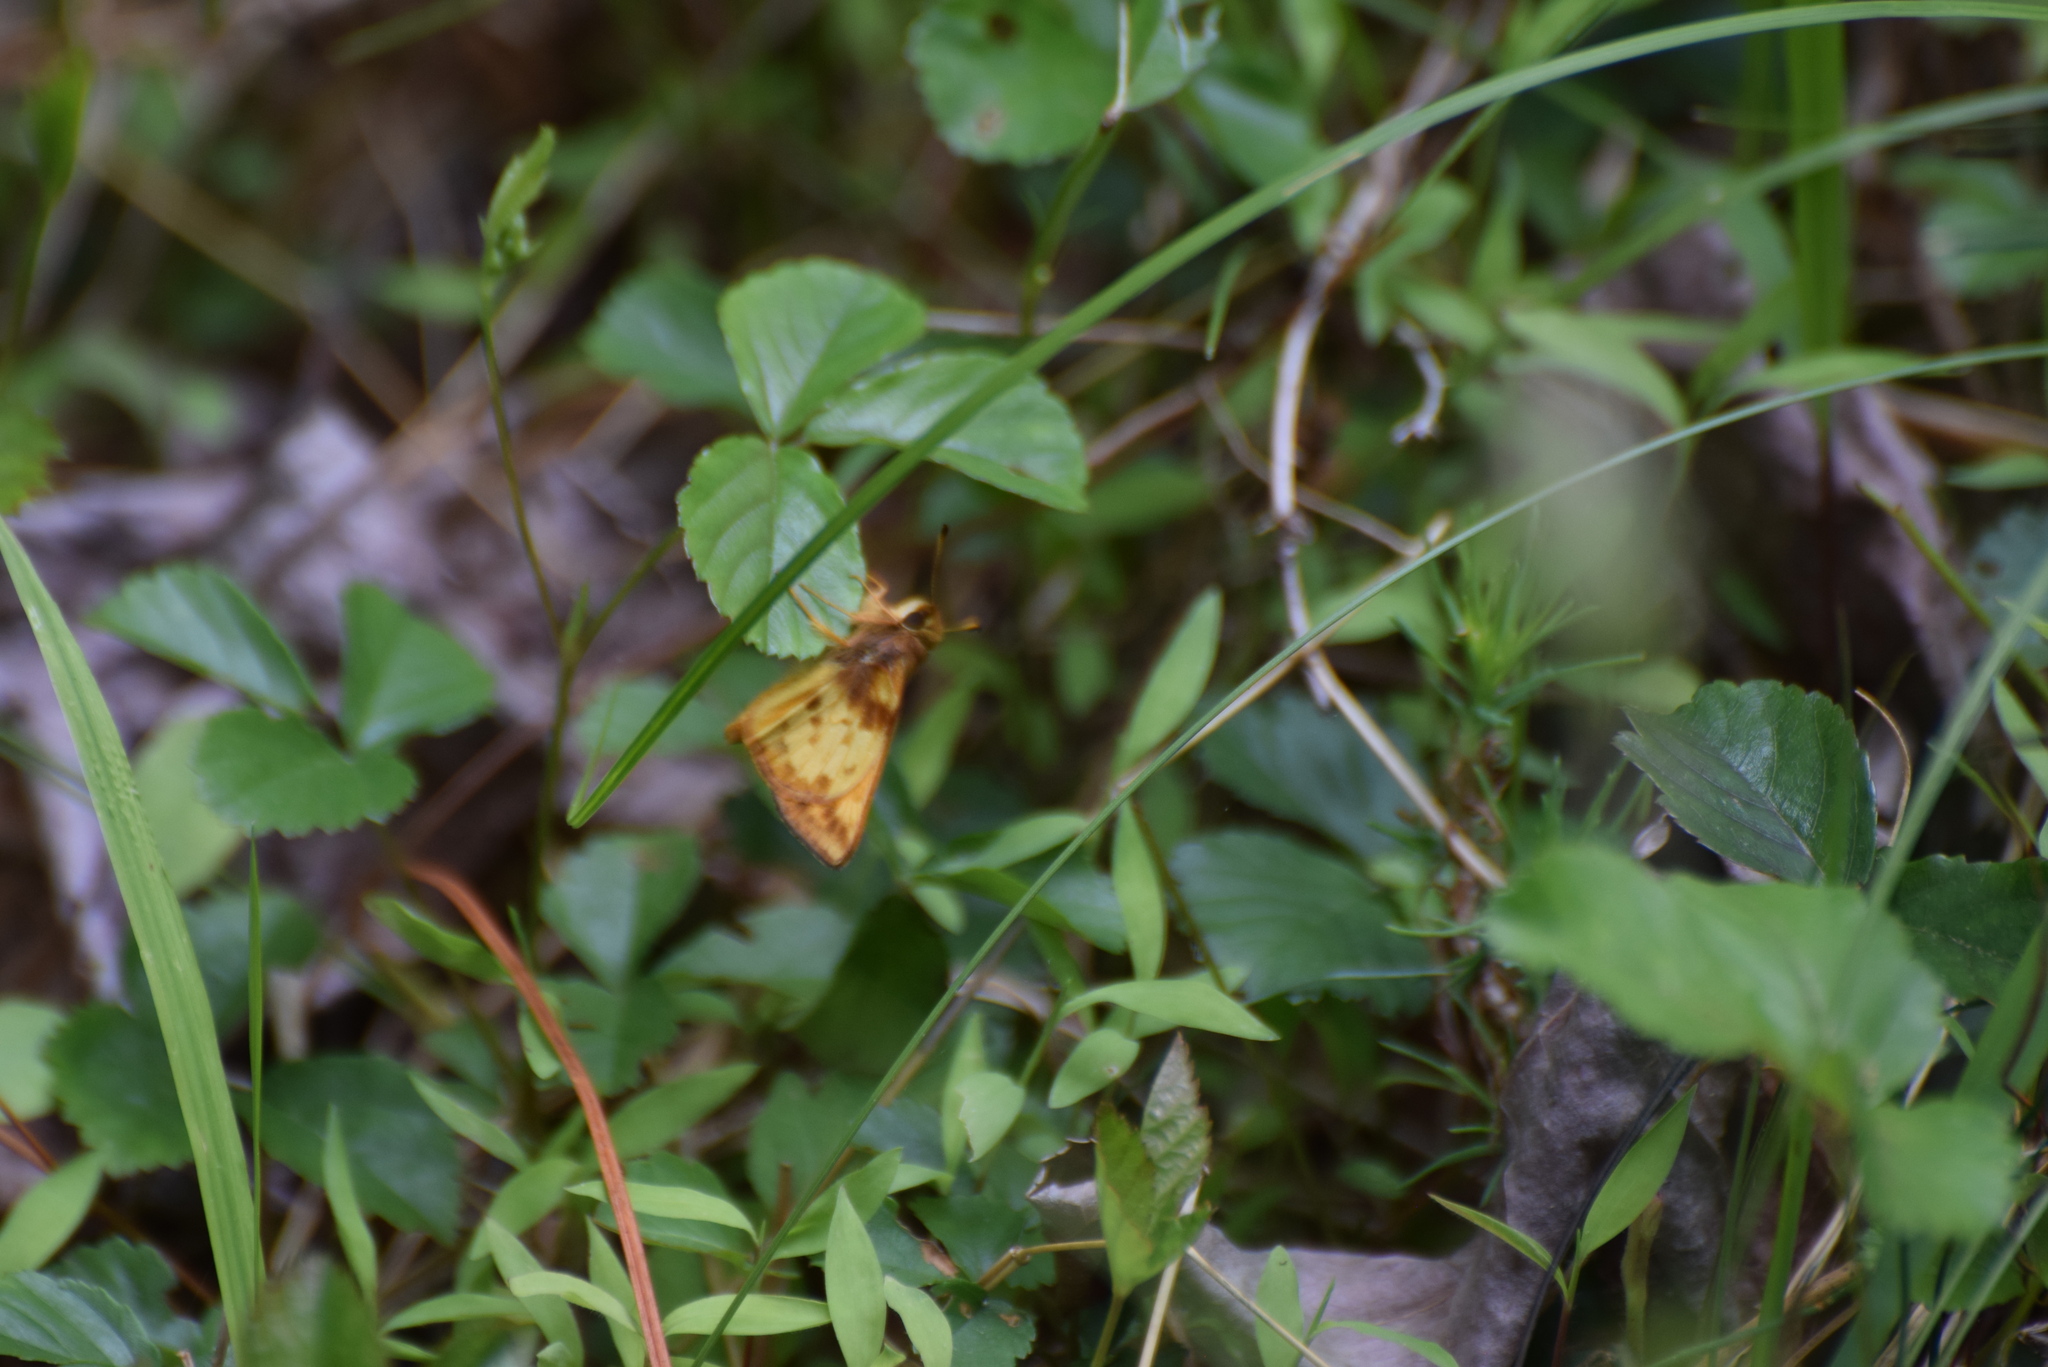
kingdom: Animalia
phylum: Arthropoda
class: Insecta
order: Lepidoptera
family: Hesperiidae
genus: Lon
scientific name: Lon zabulon
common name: Zabulon skipper
